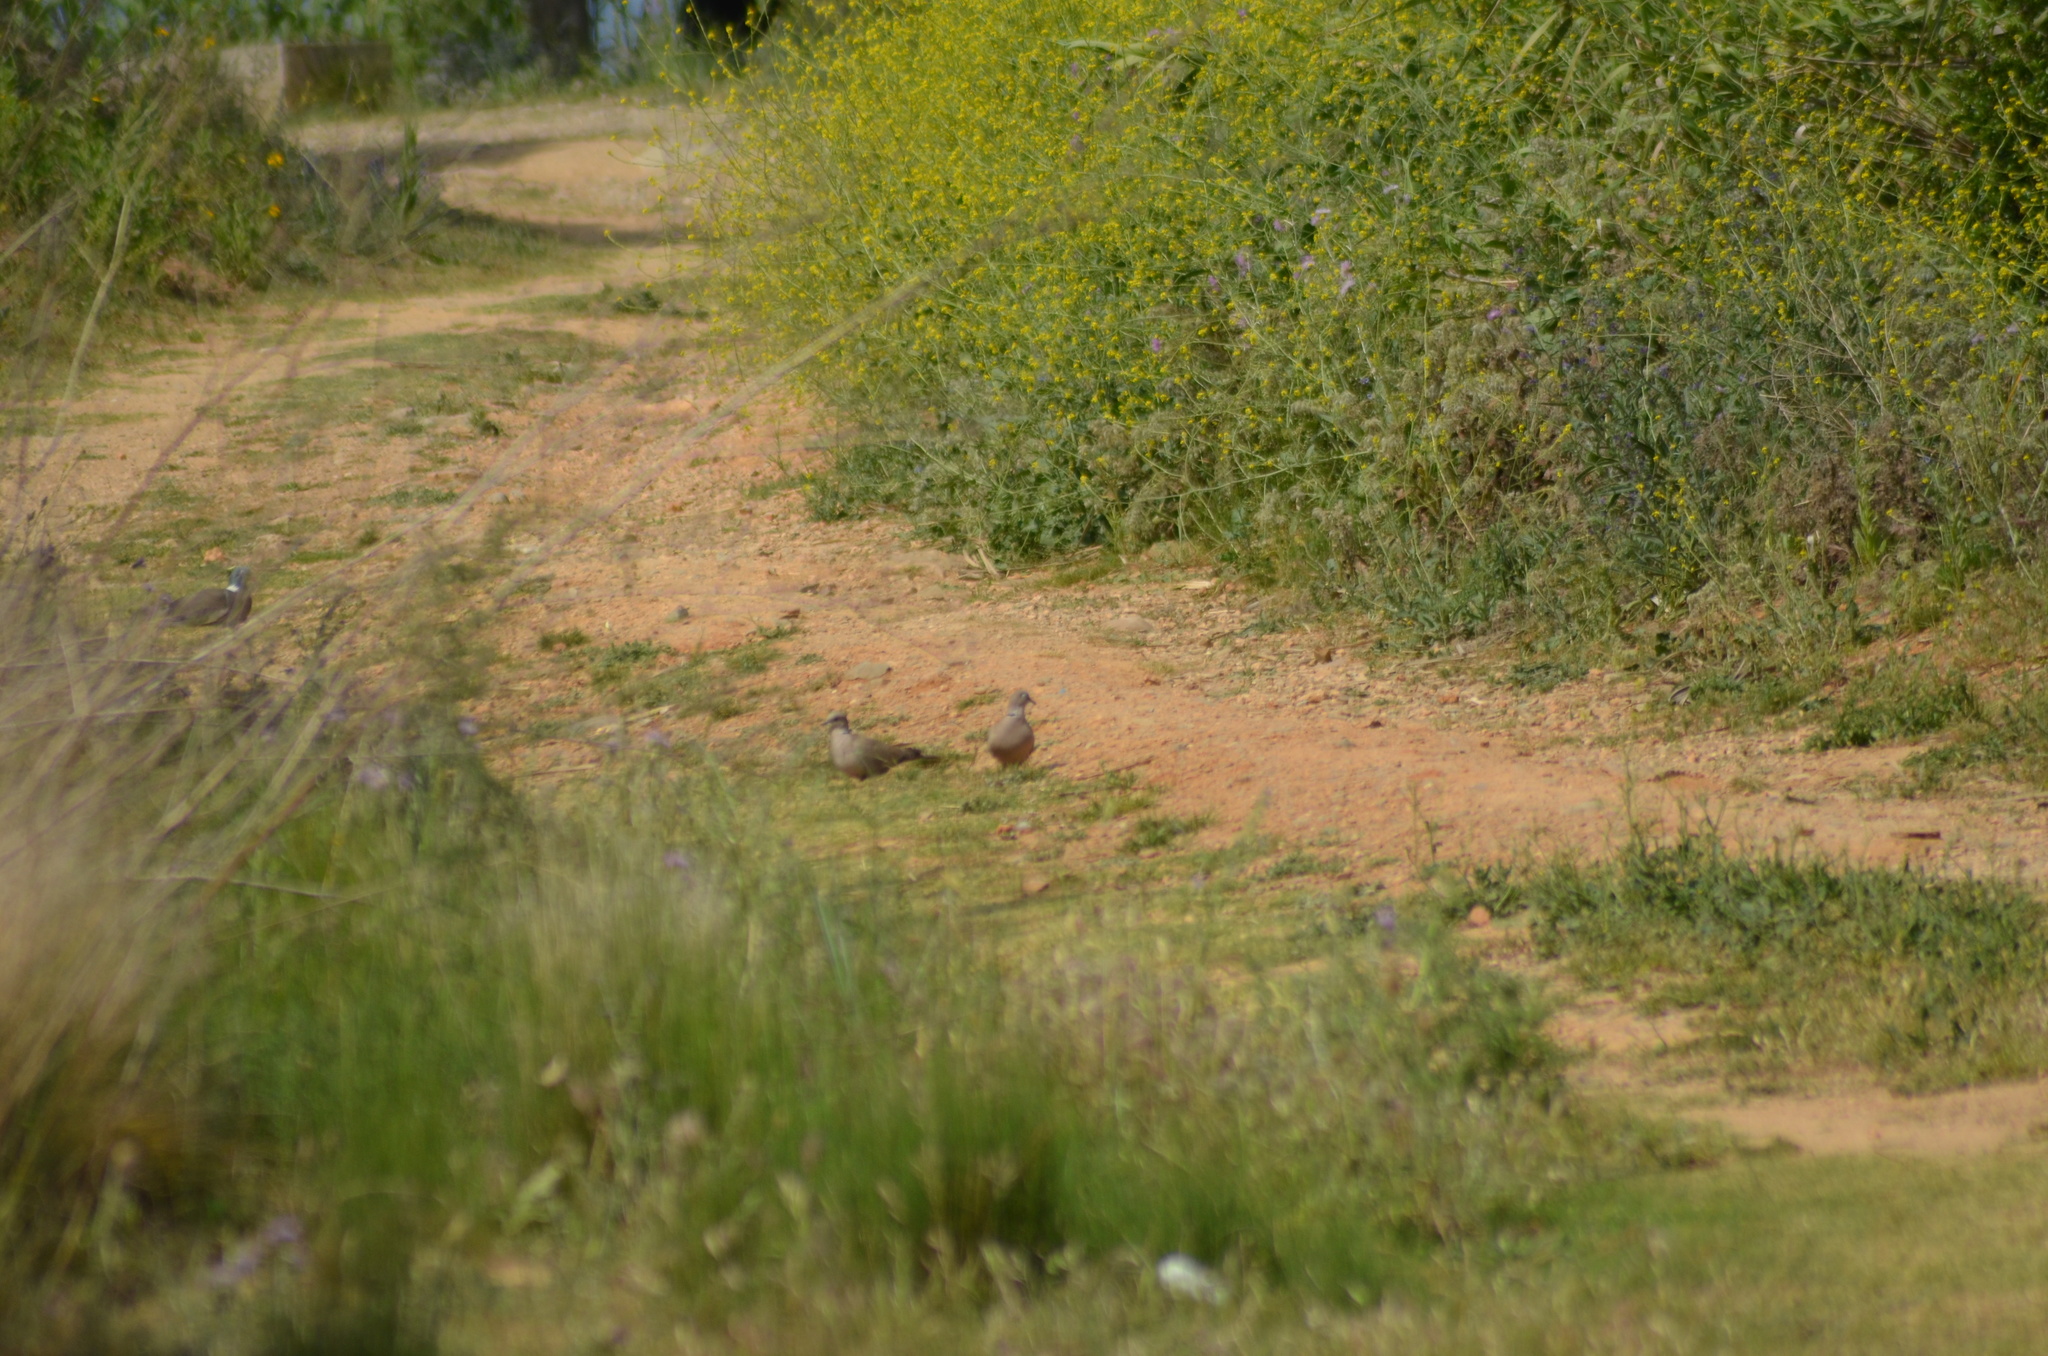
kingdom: Animalia
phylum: Chordata
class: Aves
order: Columbiformes
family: Columbidae
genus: Streptopelia
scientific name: Streptopelia decaocto
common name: Eurasian collared dove
